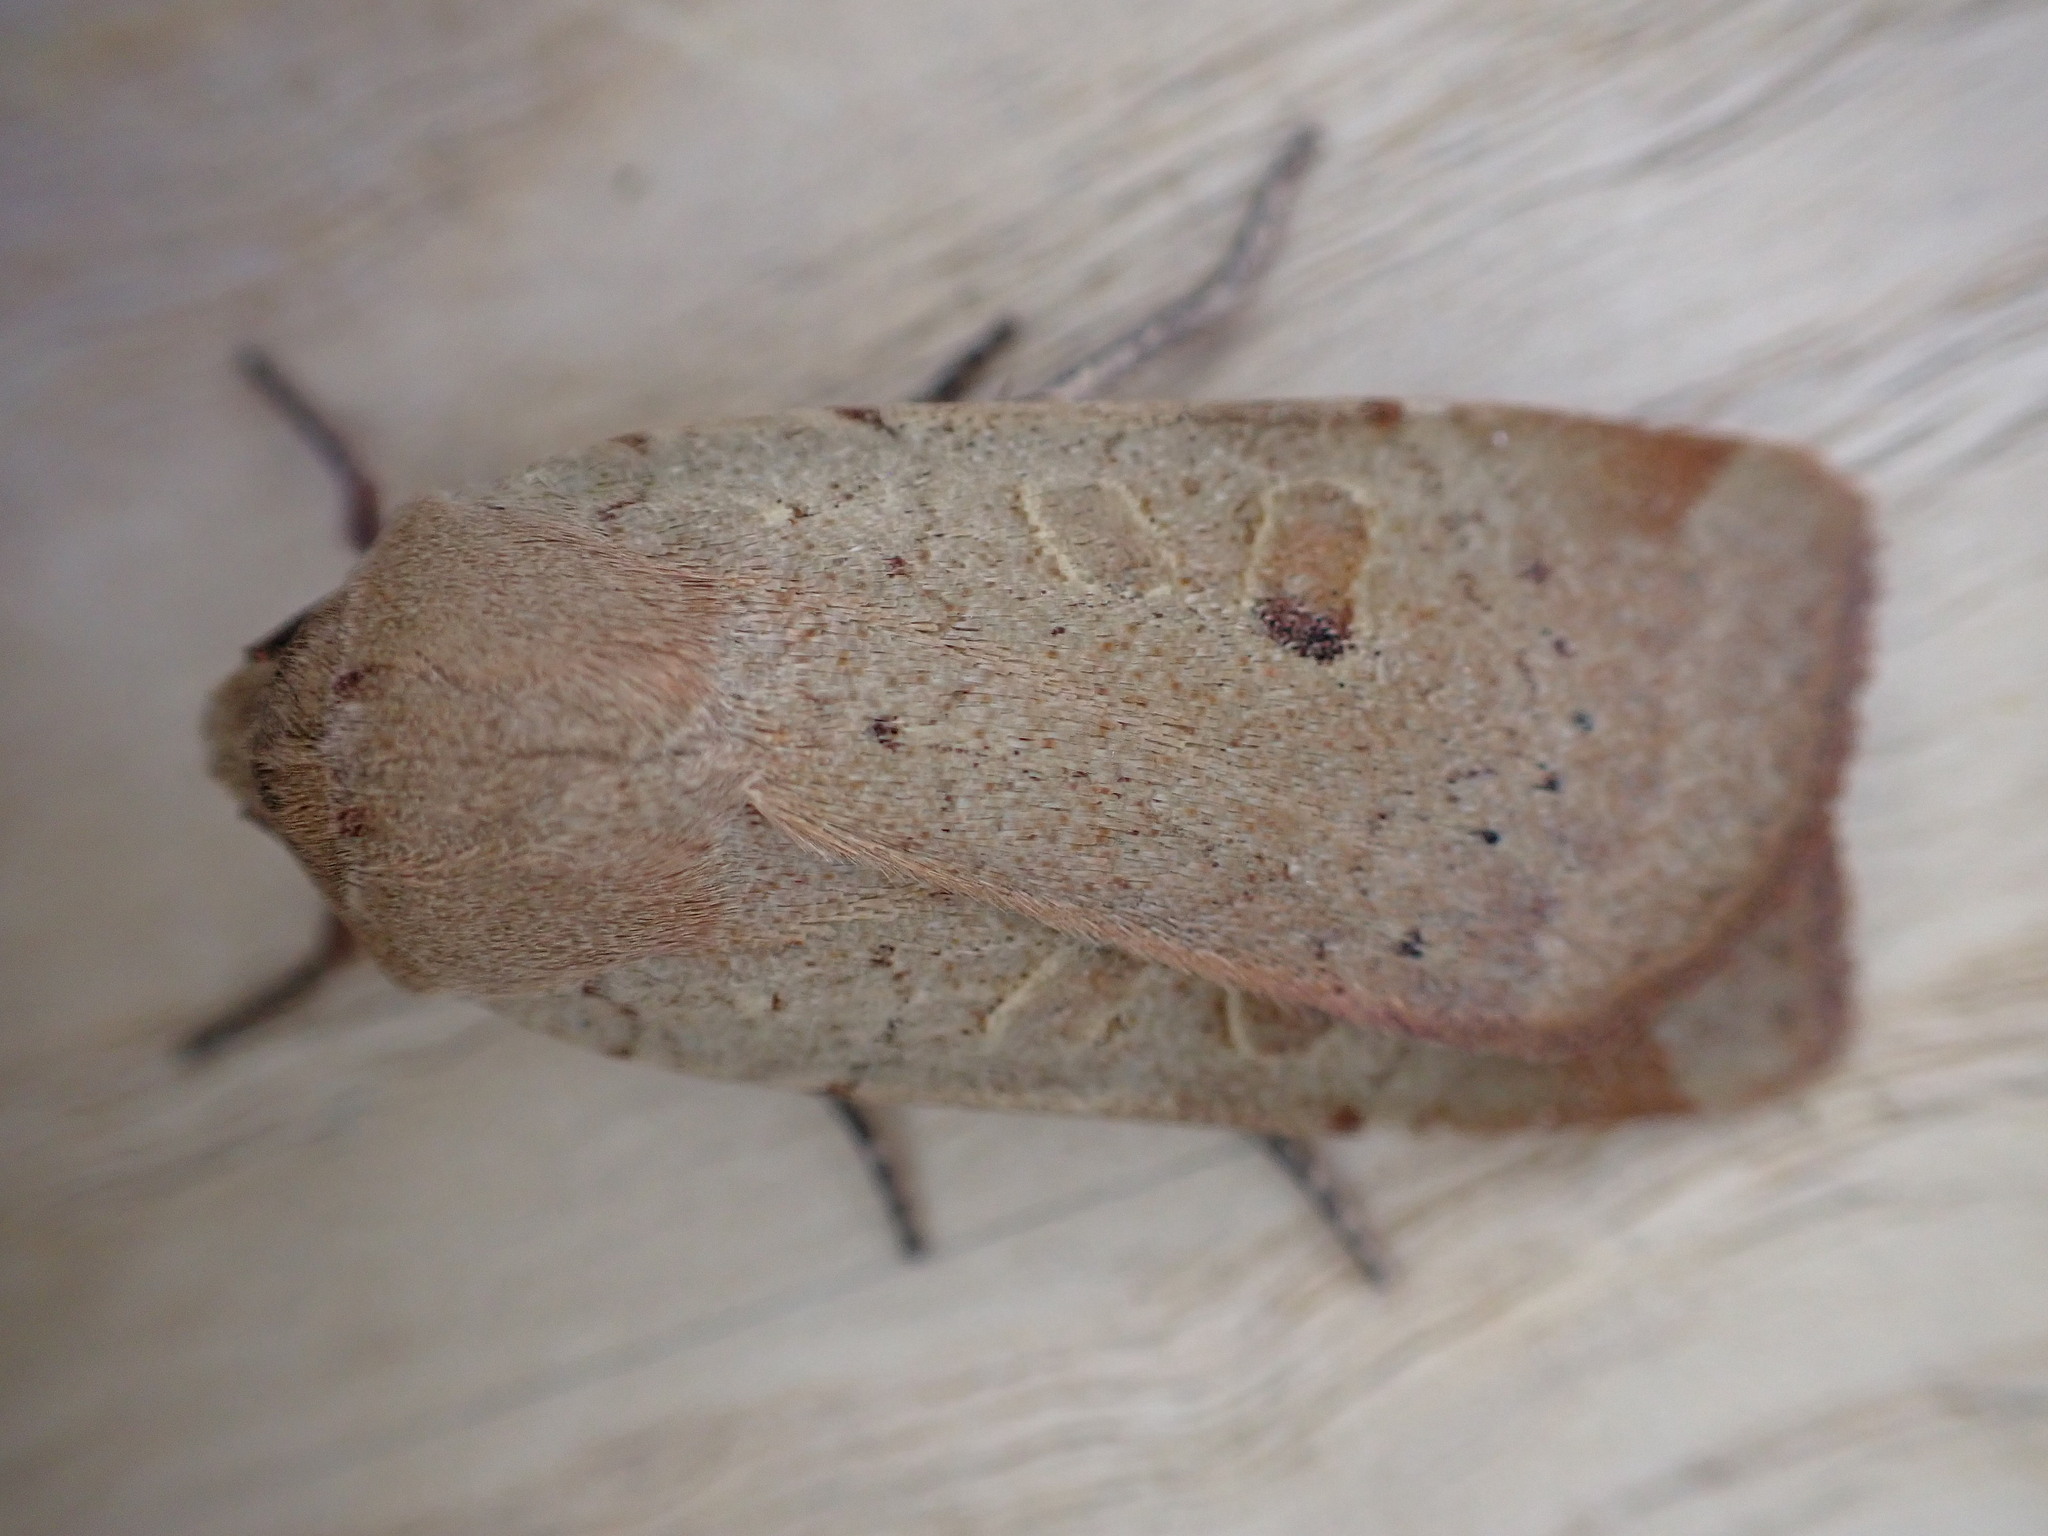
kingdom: Animalia
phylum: Arthropoda
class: Insecta
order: Lepidoptera
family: Noctuidae
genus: Noctua
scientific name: Noctua comes
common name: Lesser yellow underwing
